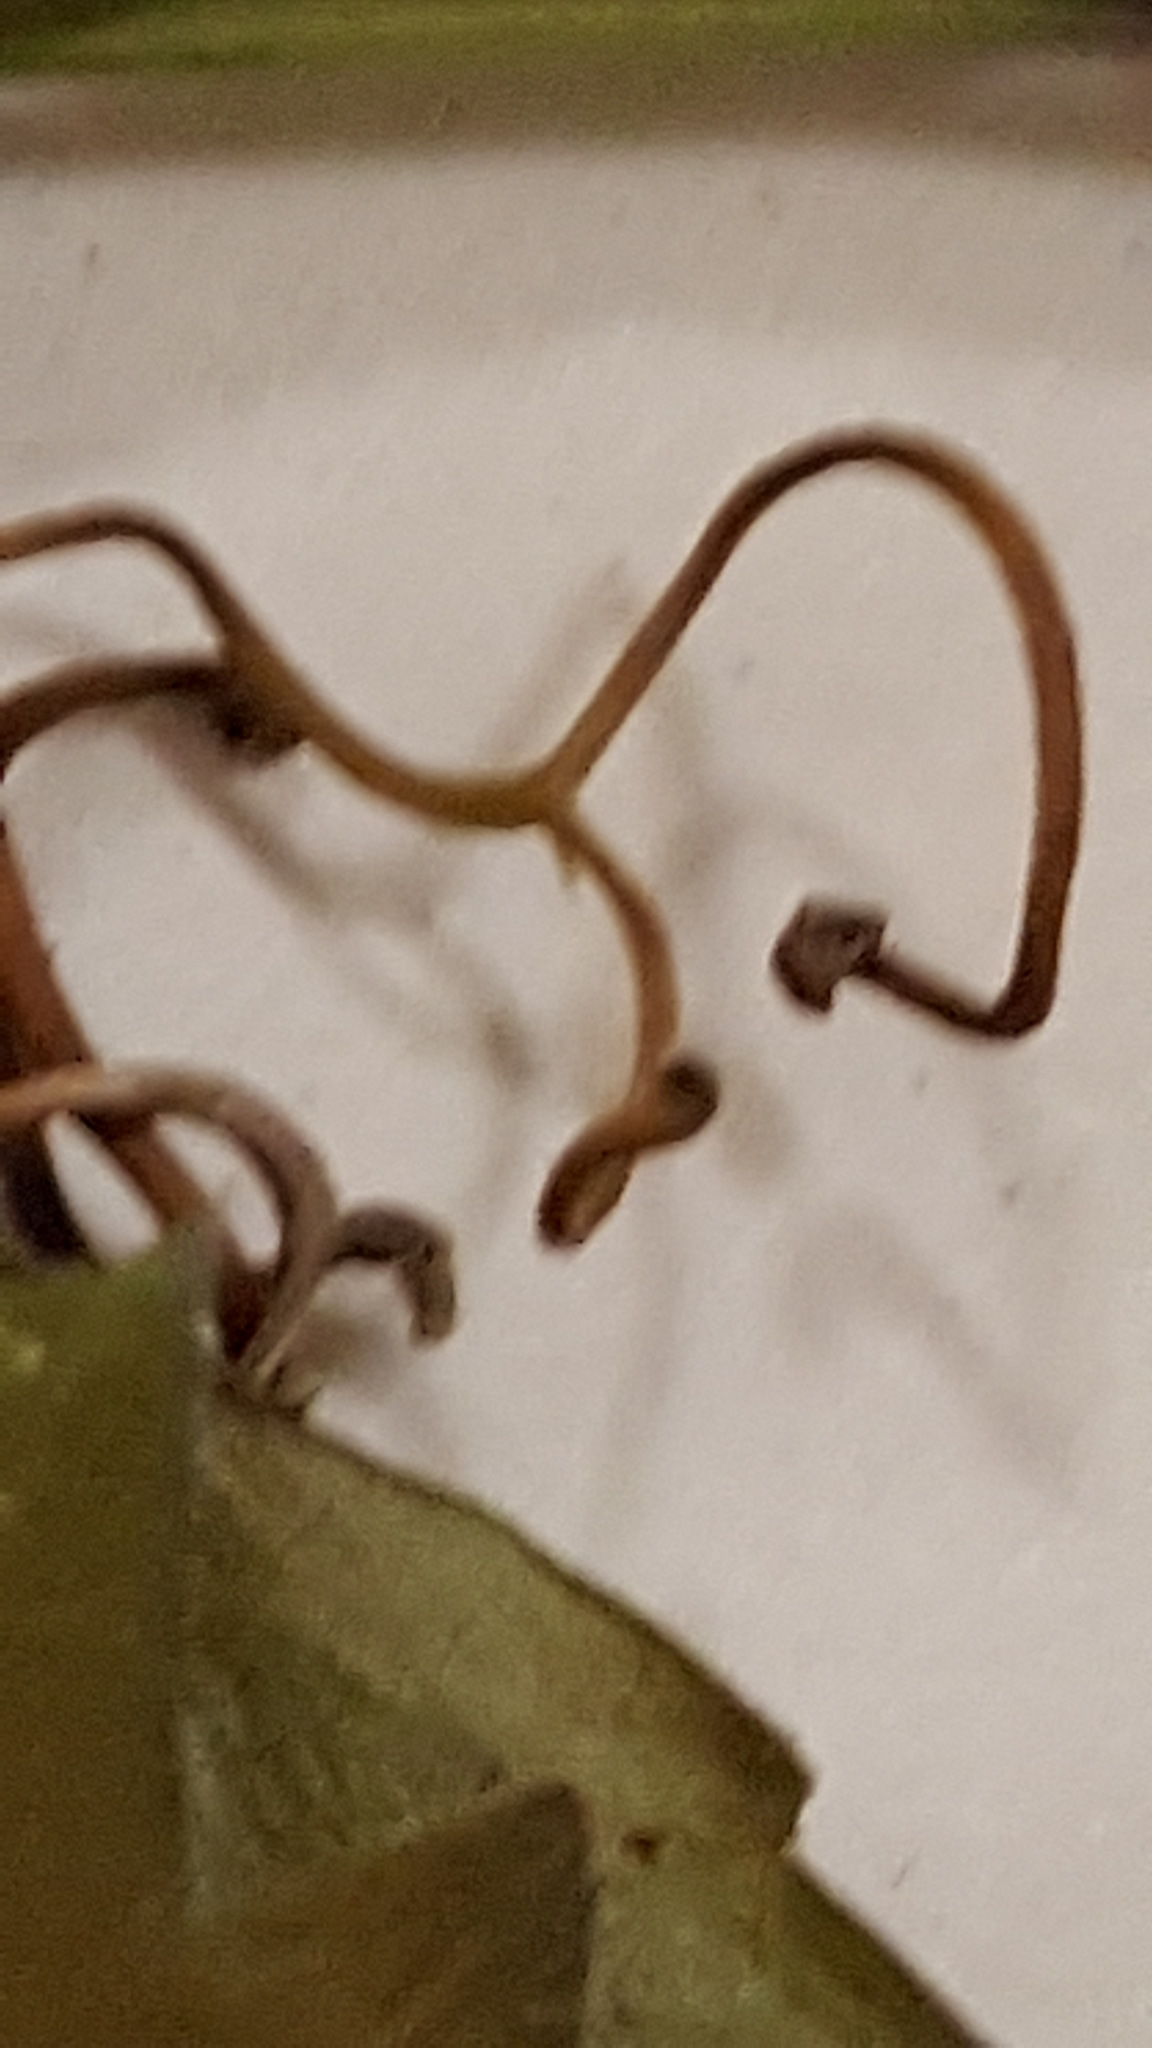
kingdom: Plantae
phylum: Tracheophyta
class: Magnoliopsida
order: Vitales
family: Vitaceae
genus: Parthenocissus
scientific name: Parthenocissus quinquefolia
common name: Virginia-creeper
